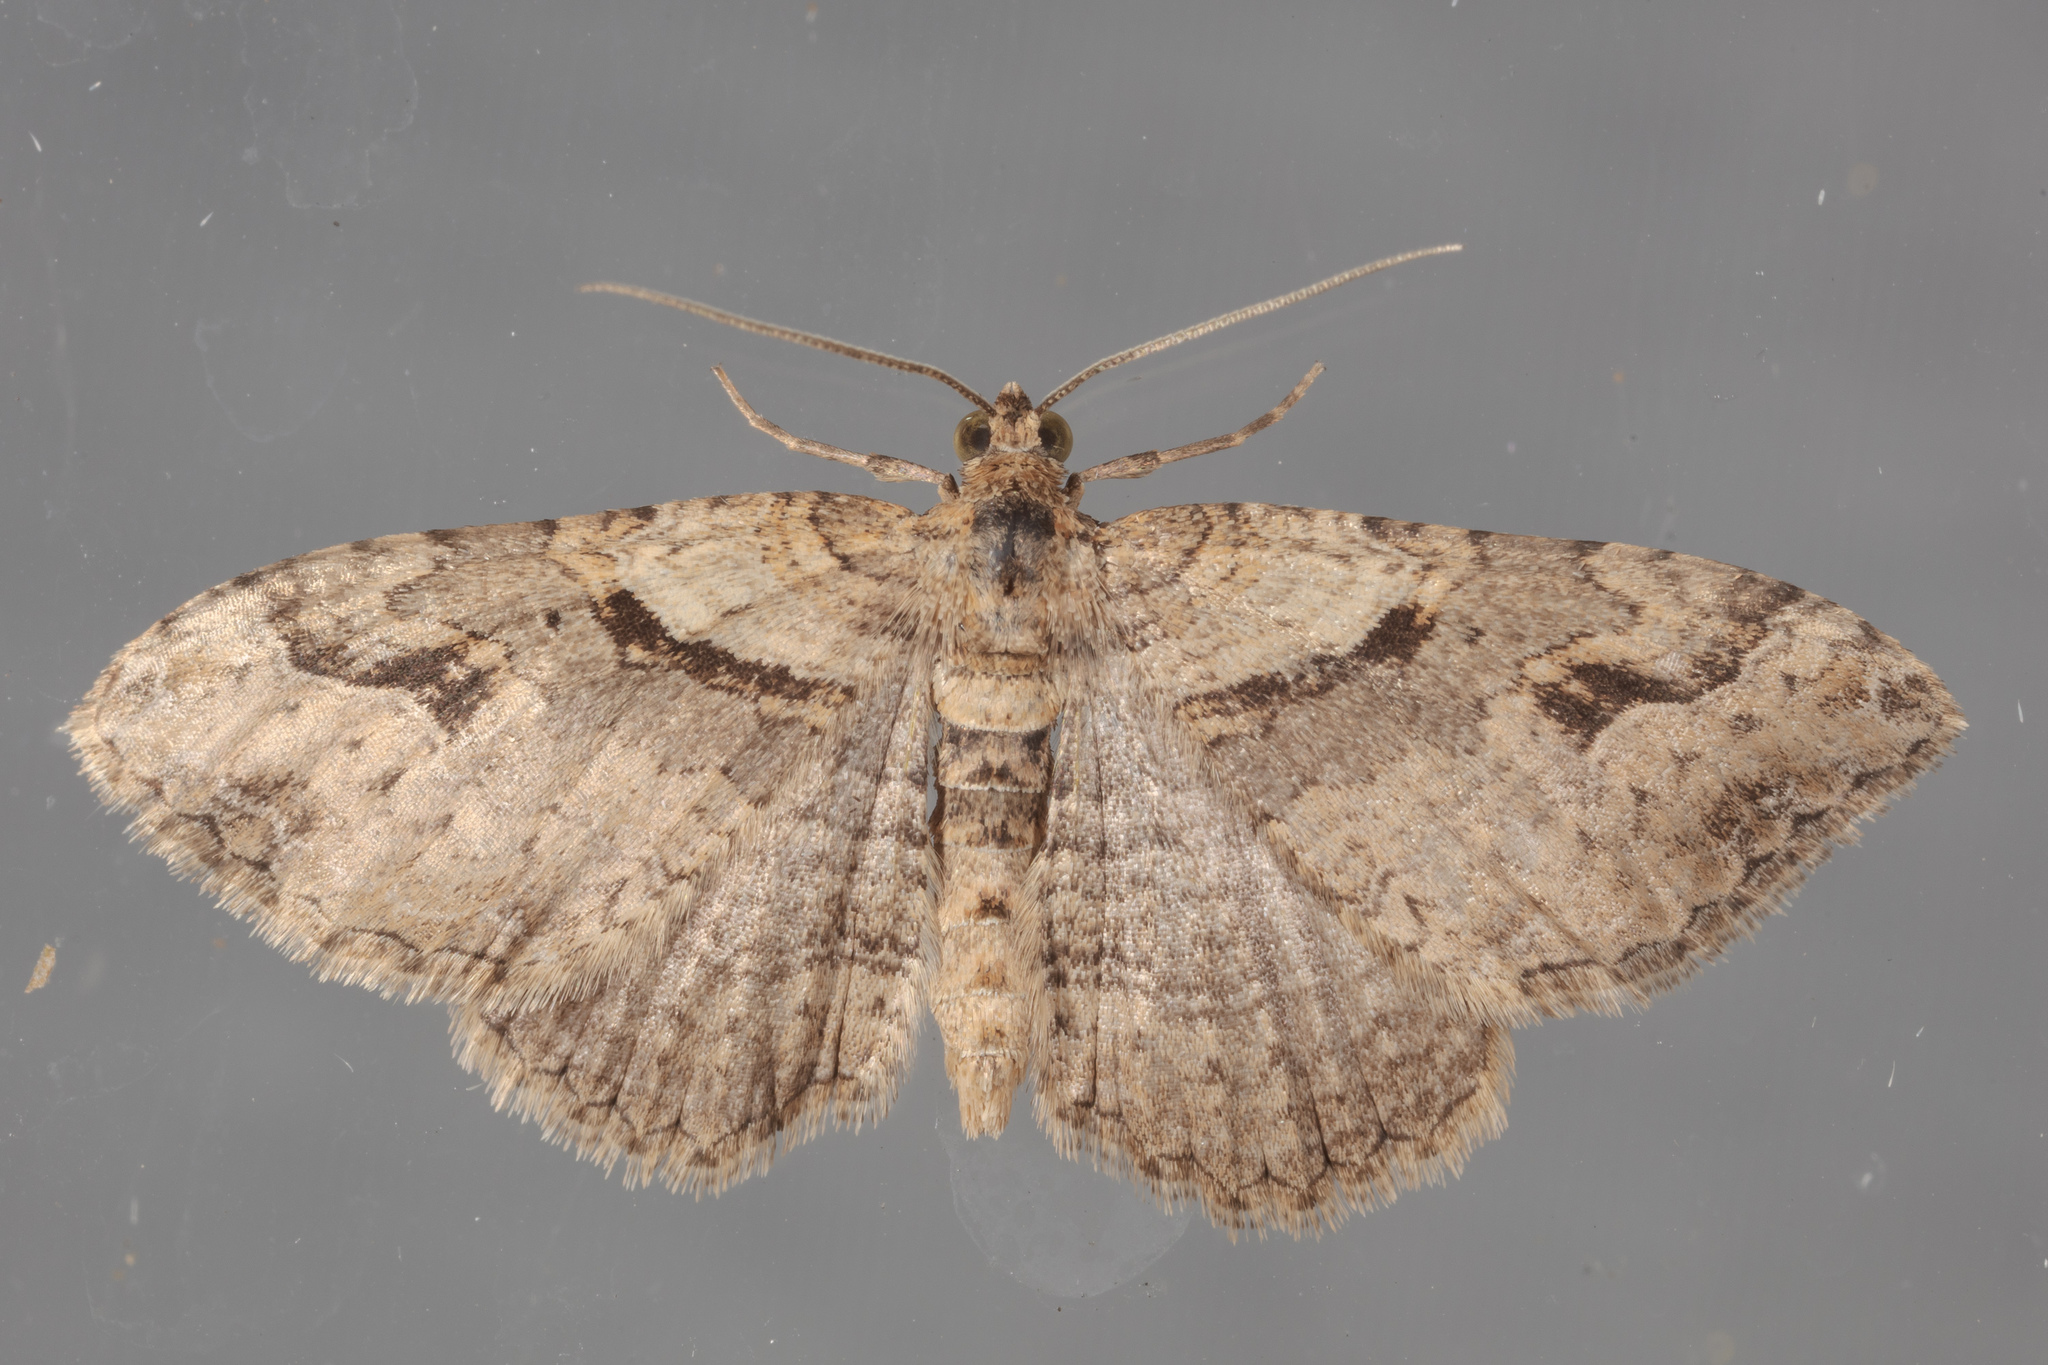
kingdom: Animalia
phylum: Arthropoda
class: Insecta
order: Lepidoptera
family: Geometridae
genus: Costaconvexa
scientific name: Costaconvexa centrostrigaria
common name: Bent-line carpet
